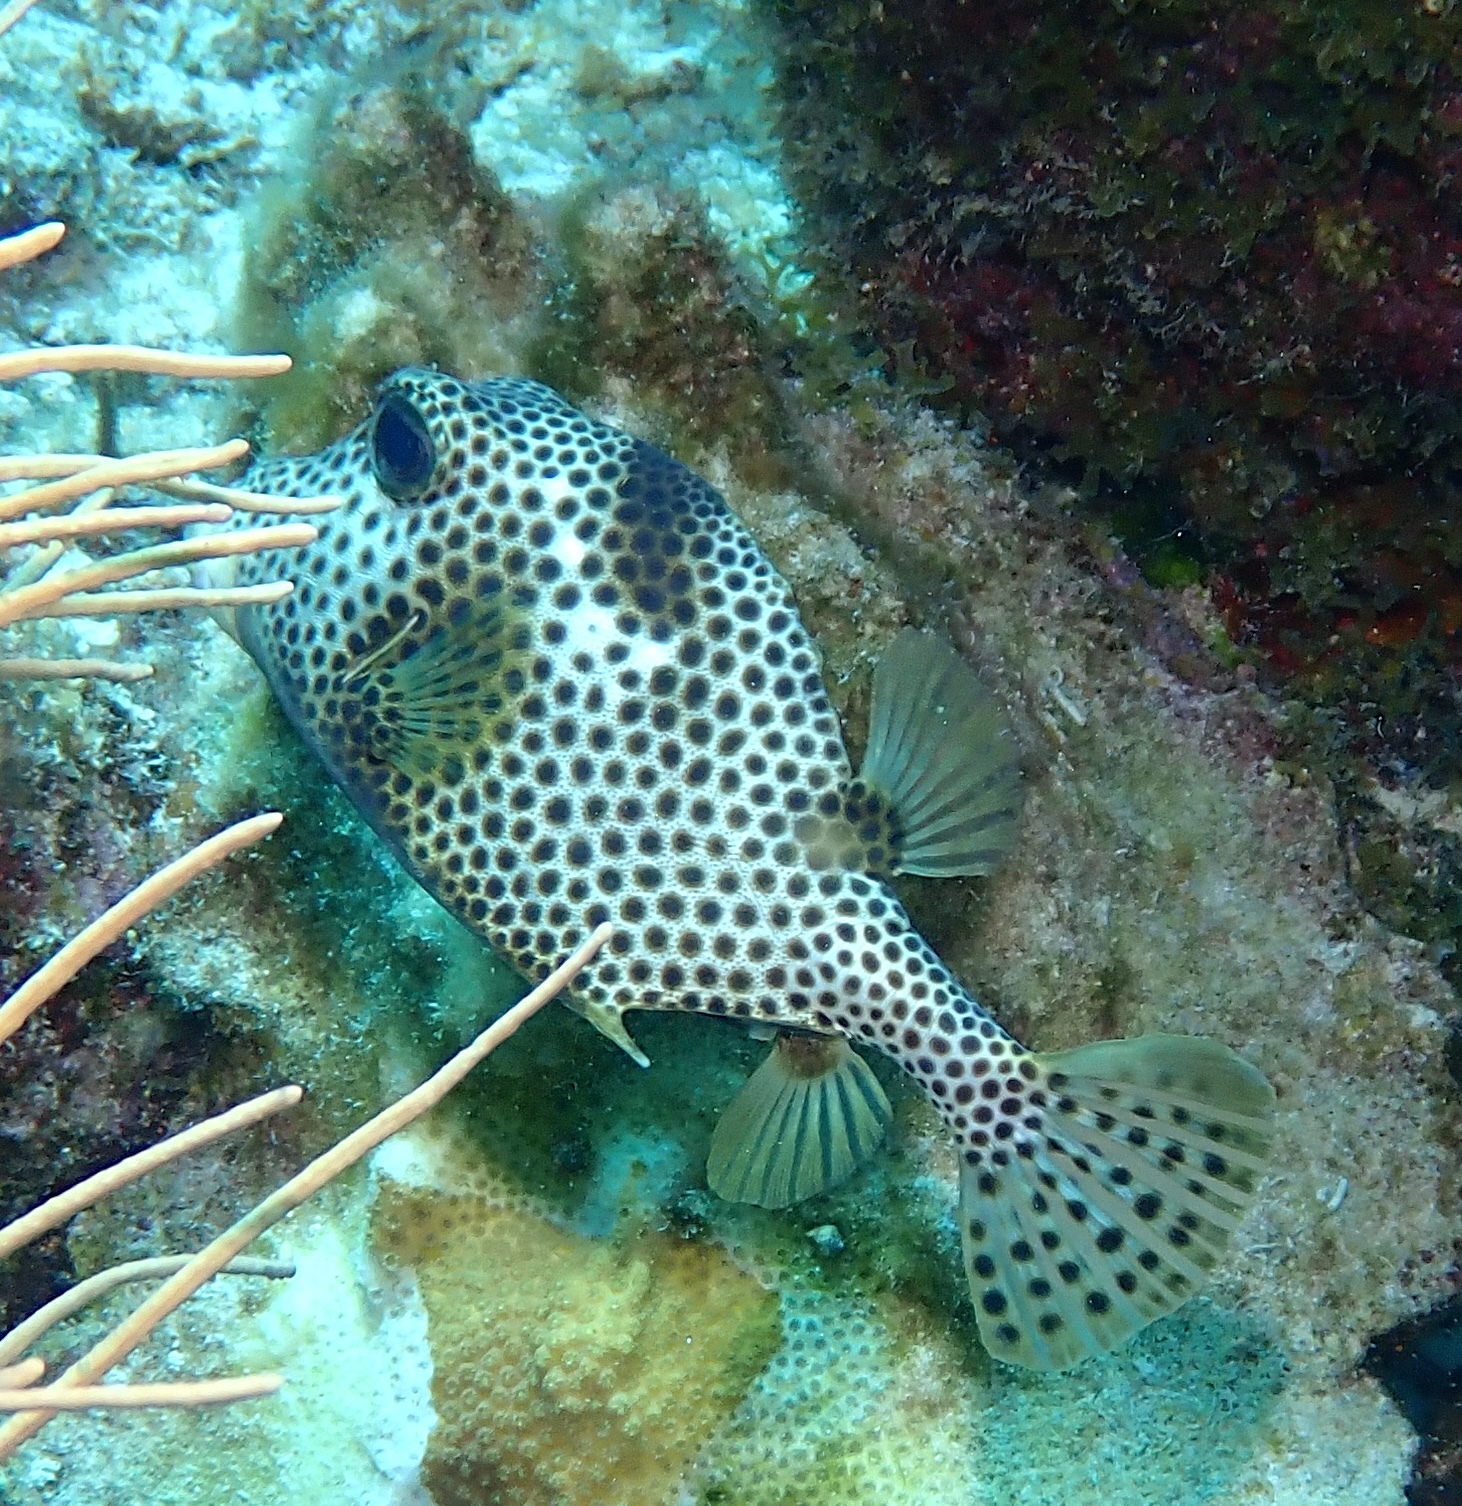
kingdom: Animalia
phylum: Chordata
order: Tetraodontiformes
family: Ostraciidae
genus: Lactophrys
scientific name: Lactophrys bicaudalis
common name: Spotted trunkfish
